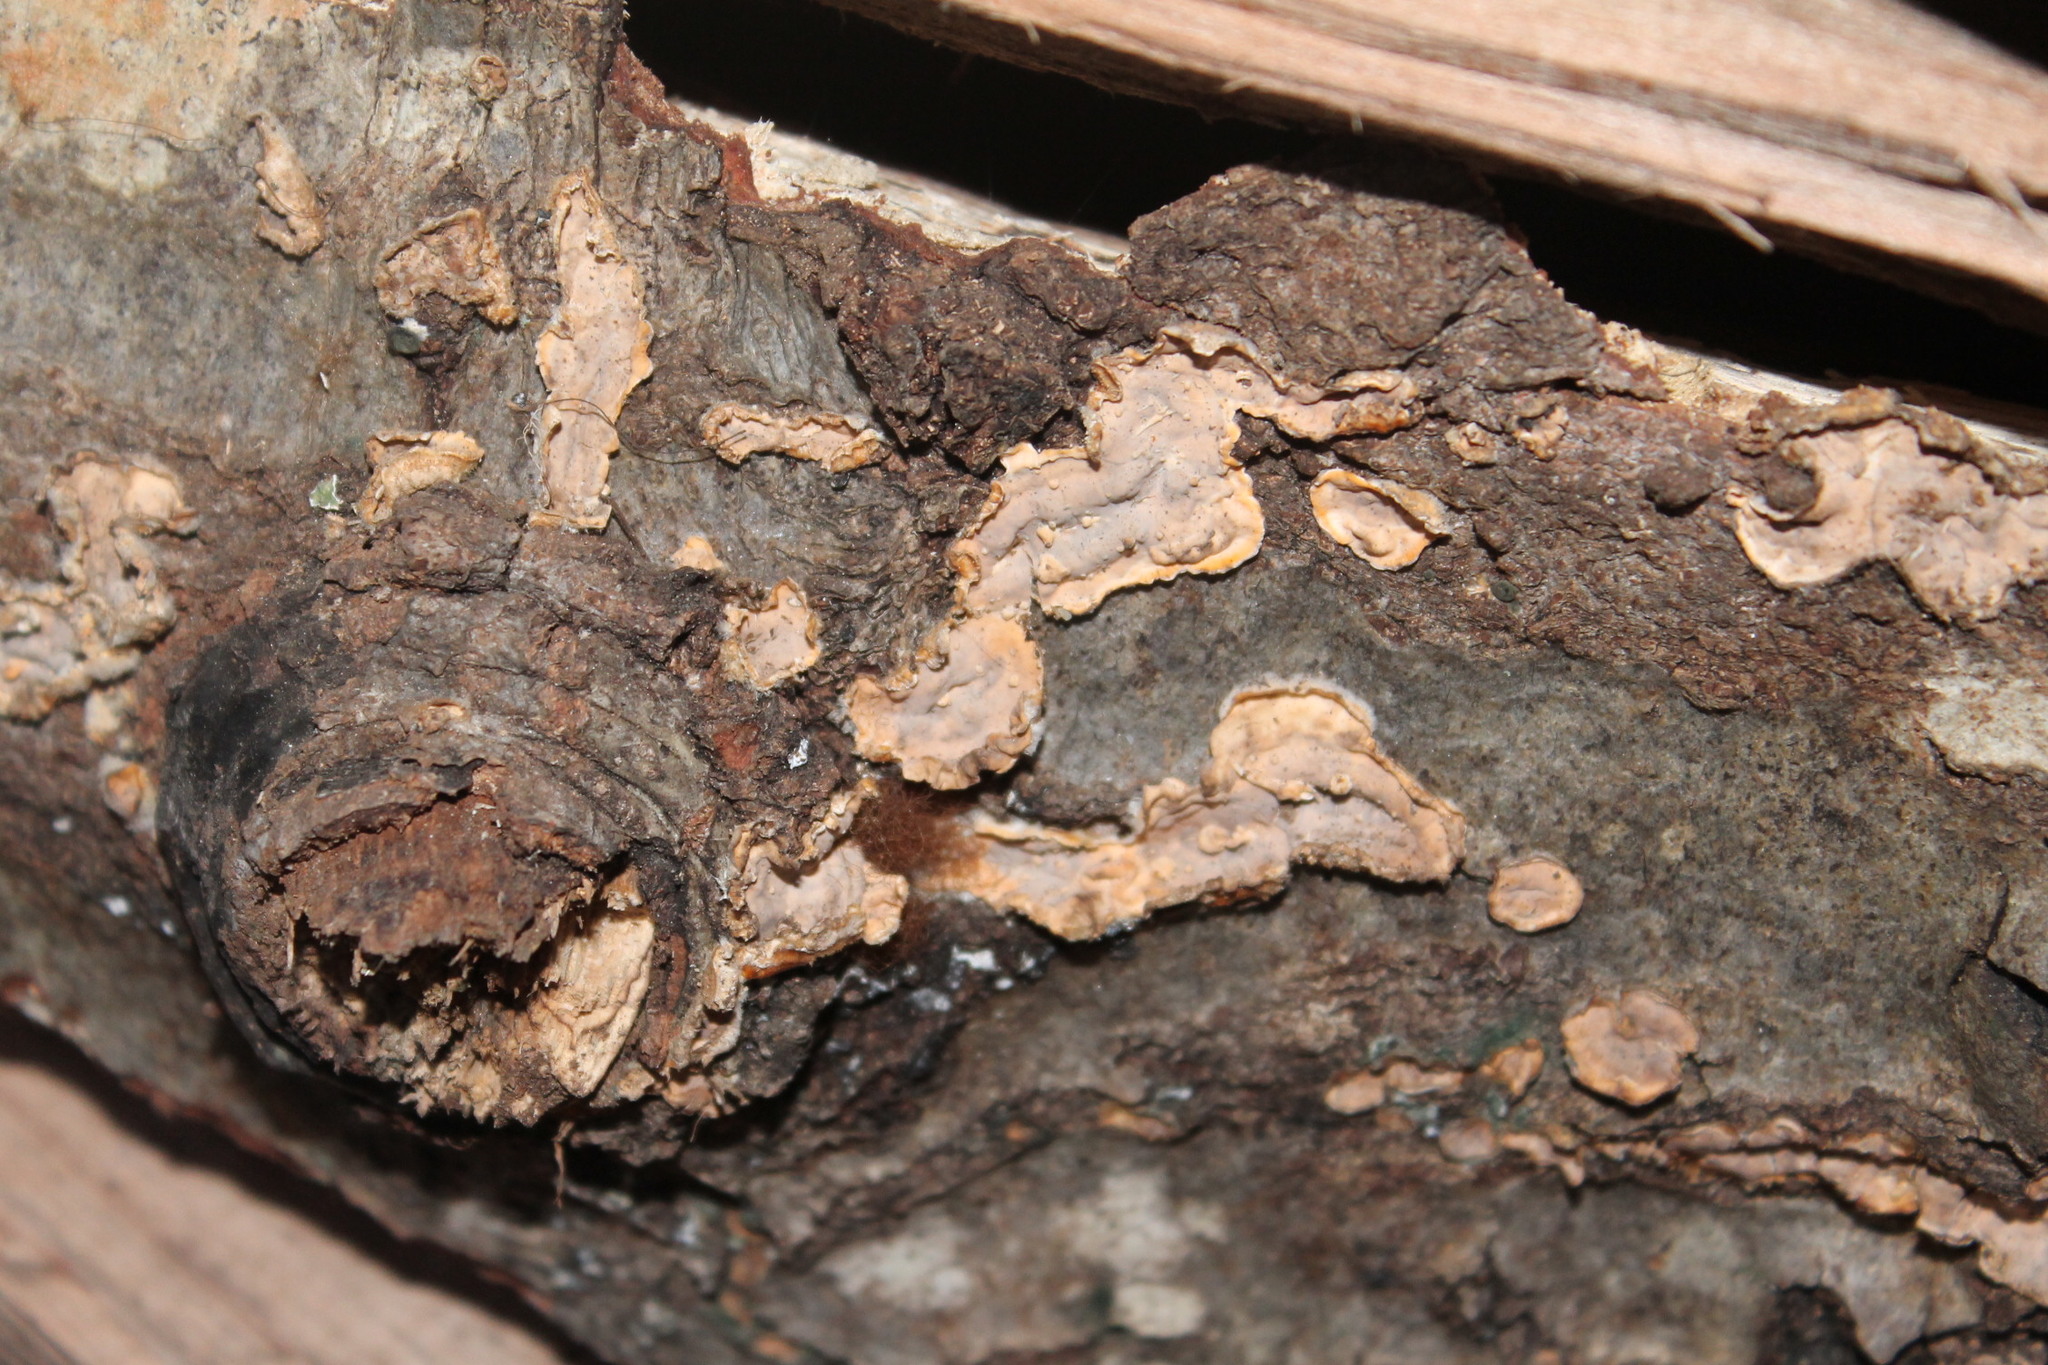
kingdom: Fungi
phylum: Basidiomycota
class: Agaricomycetes
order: Polyporales
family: Meruliaceae
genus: Phlebia
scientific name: Phlebia radiata
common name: Wrinkled crust
